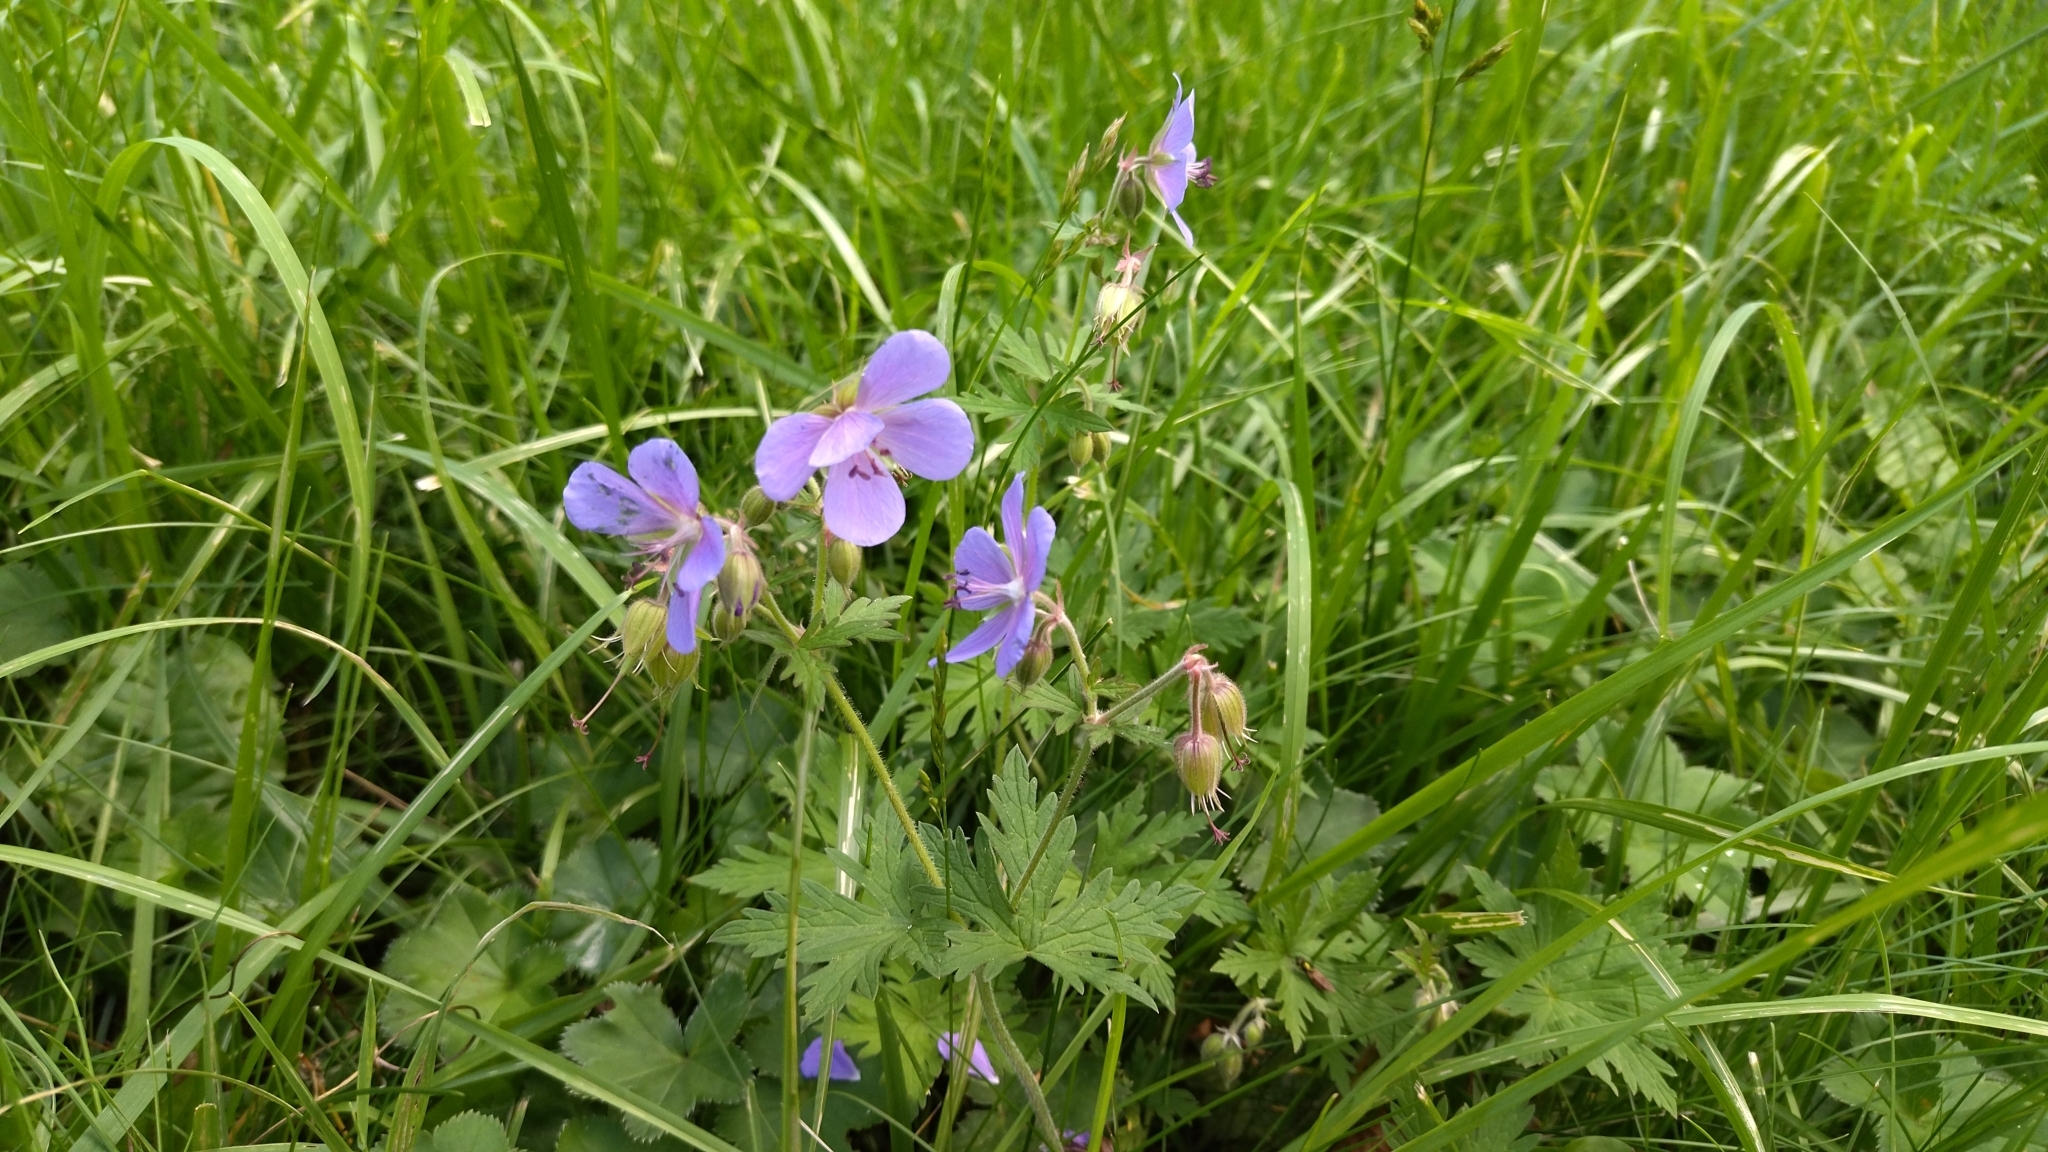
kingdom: Plantae
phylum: Tracheophyta
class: Magnoliopsida
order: Geraniales
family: Geraniaceae
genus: Geranium
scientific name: Geranium pratense
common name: Meadow crane's-bill
